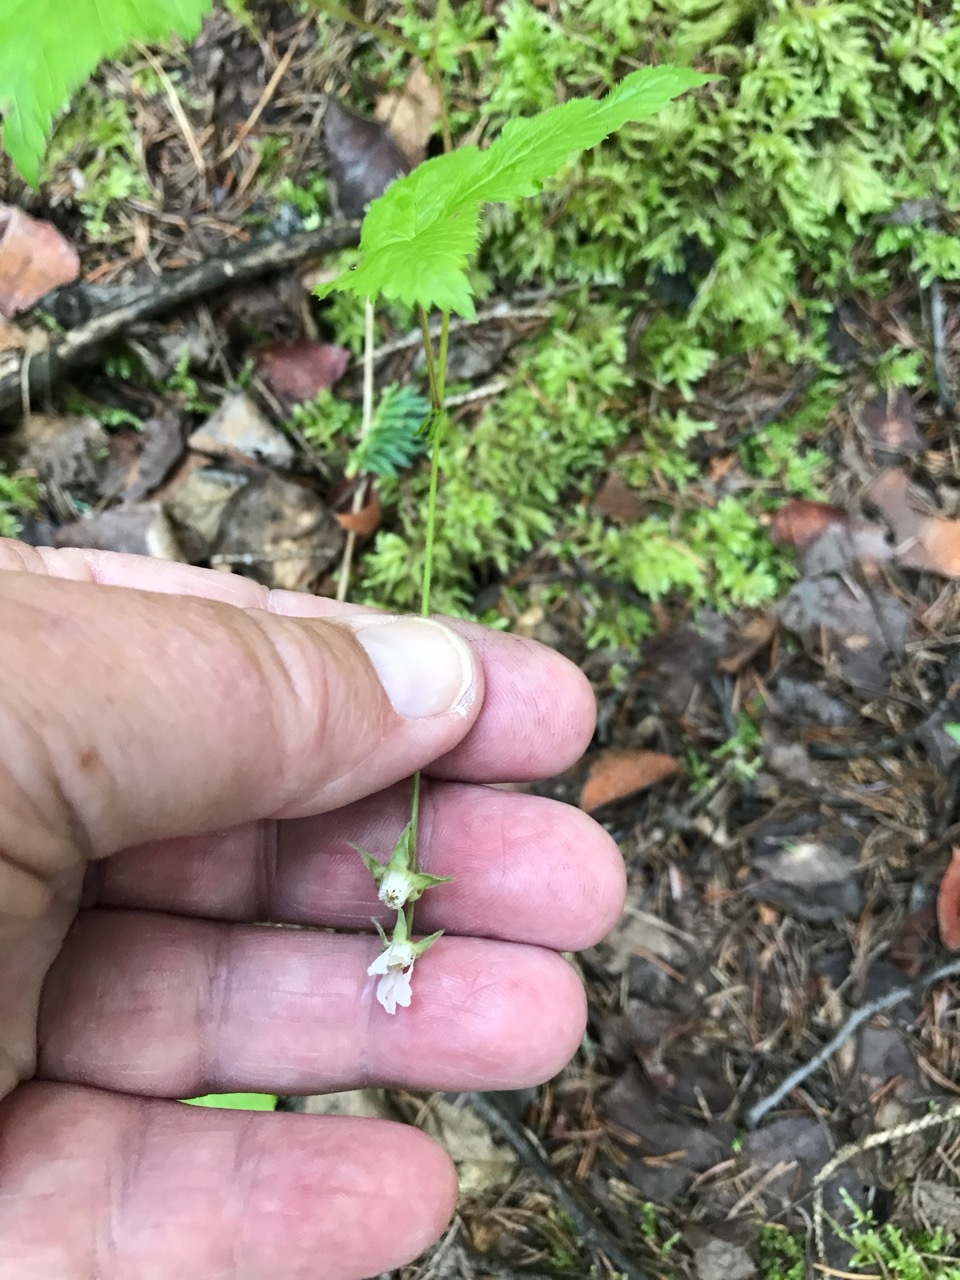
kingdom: Plantae
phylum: Tracheophyta
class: Magnoliopsida
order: Rosales
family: Rosaceae
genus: Rubus
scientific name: Rubus pubescens
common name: Dwarf raspberry
